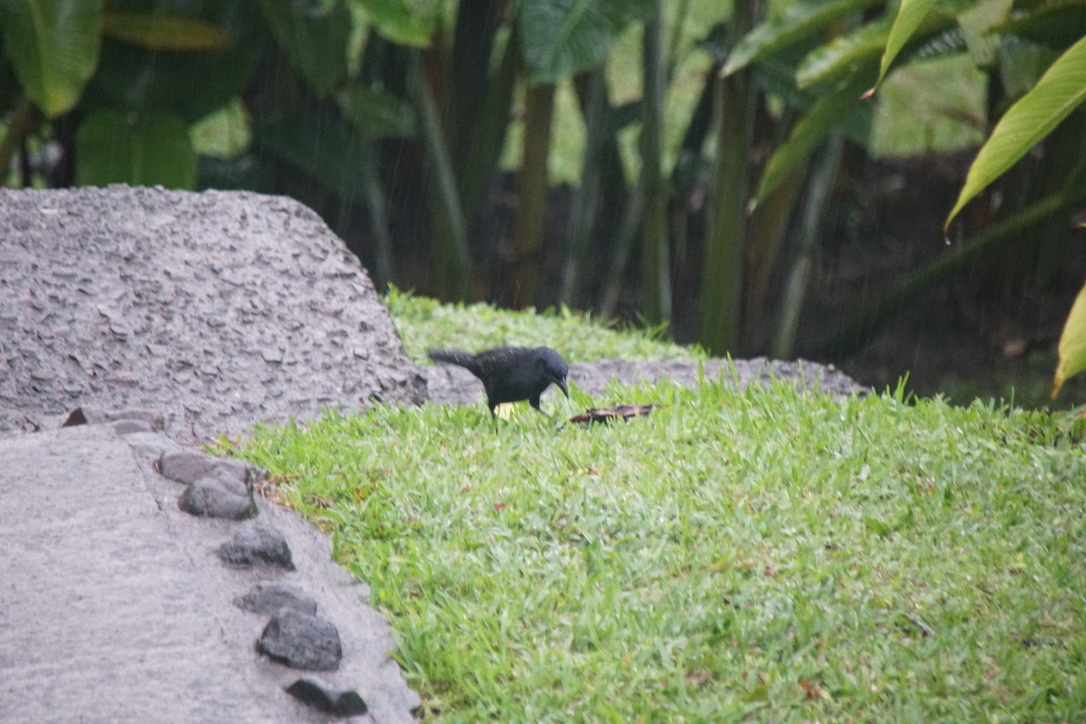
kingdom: Animalia
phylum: Chordata
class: Aves
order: Passeriformes
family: Icteridae
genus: Dives
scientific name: Dives dives
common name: Melodious blackbird
